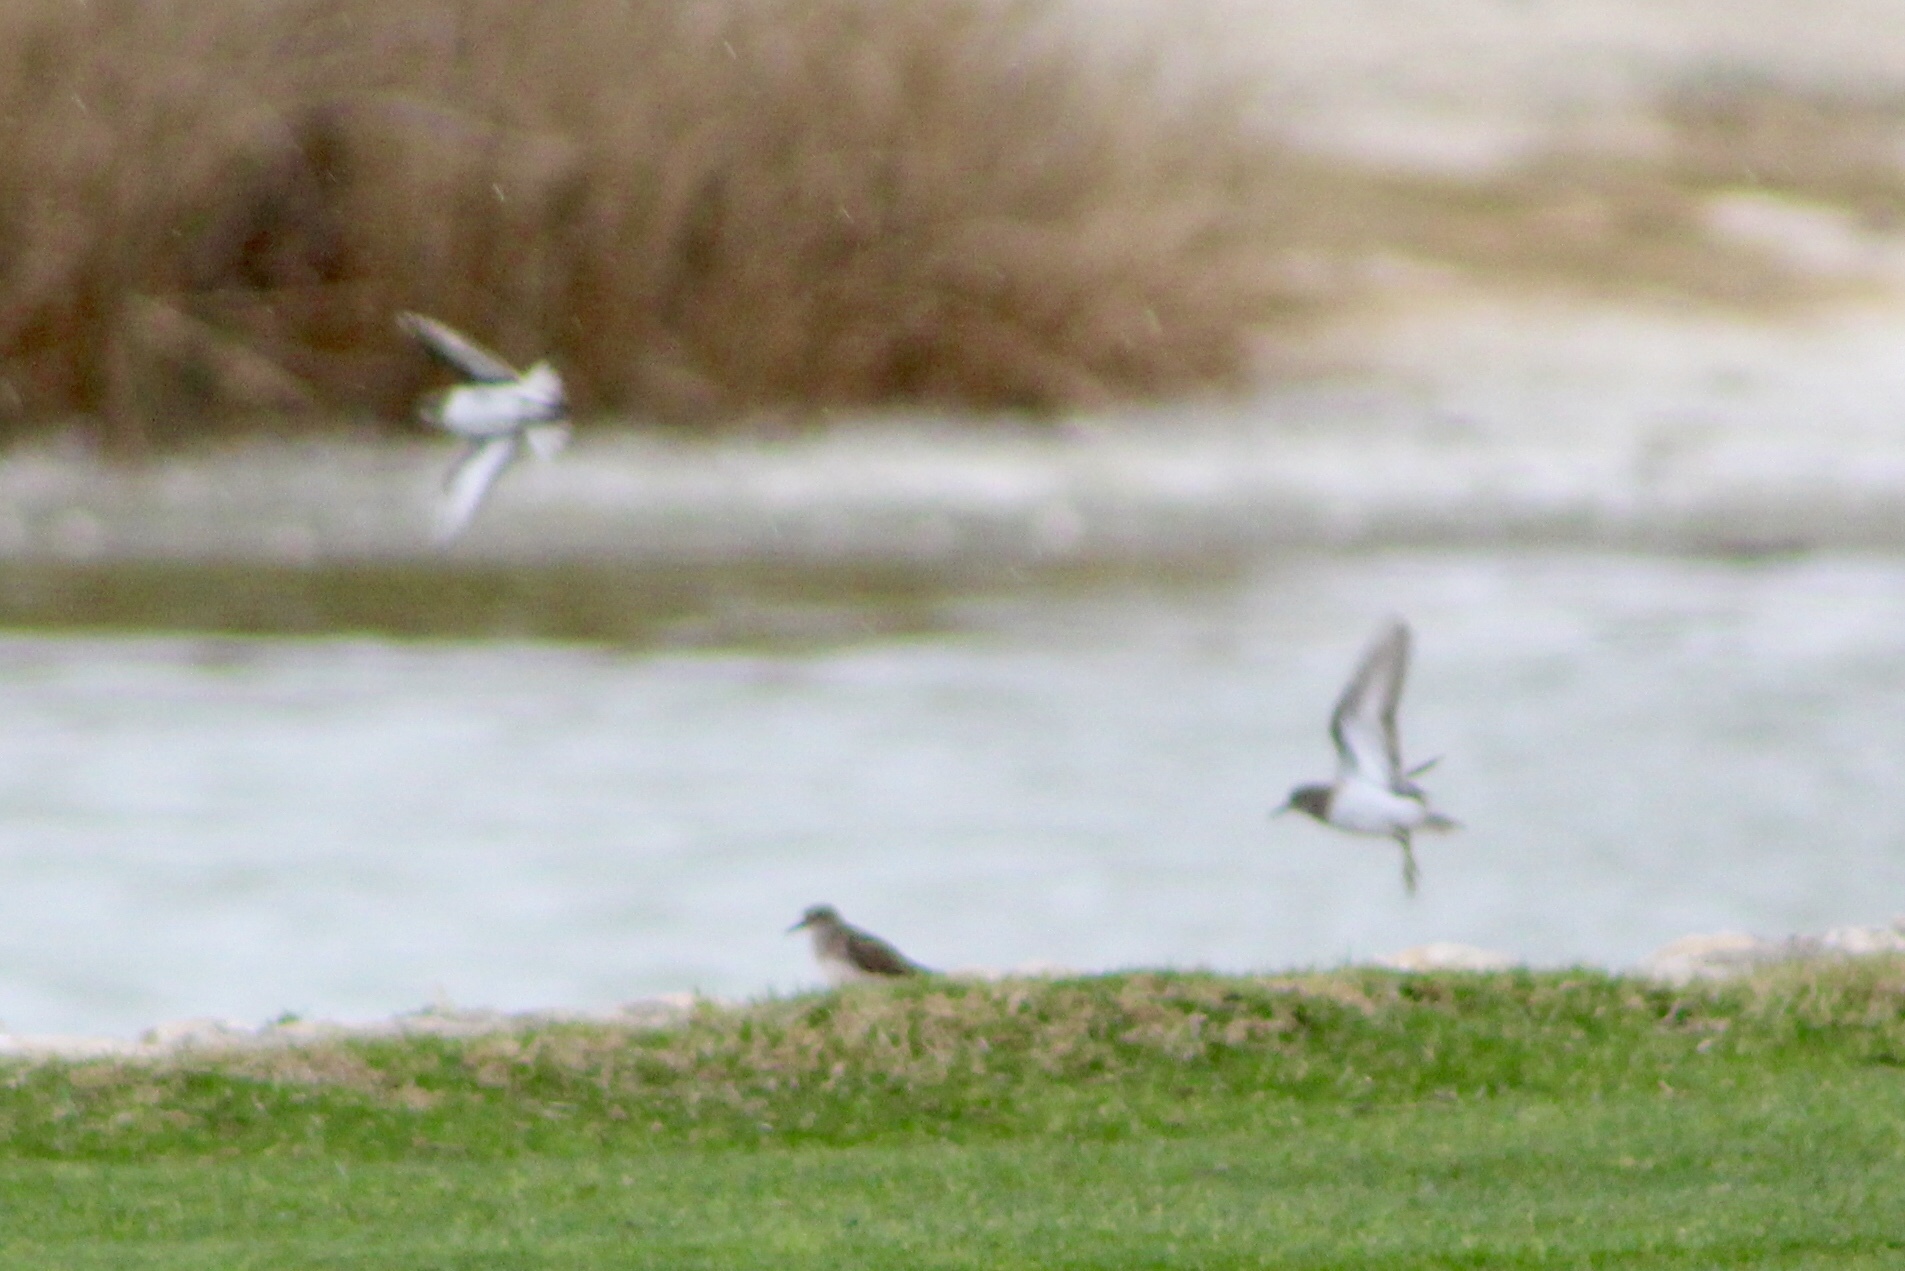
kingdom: Animalia
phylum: Chordata
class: Aves
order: Charadriiformes
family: Scolopacidae
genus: Calidris
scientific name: Calidris minutilla
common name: Least sandpiper
